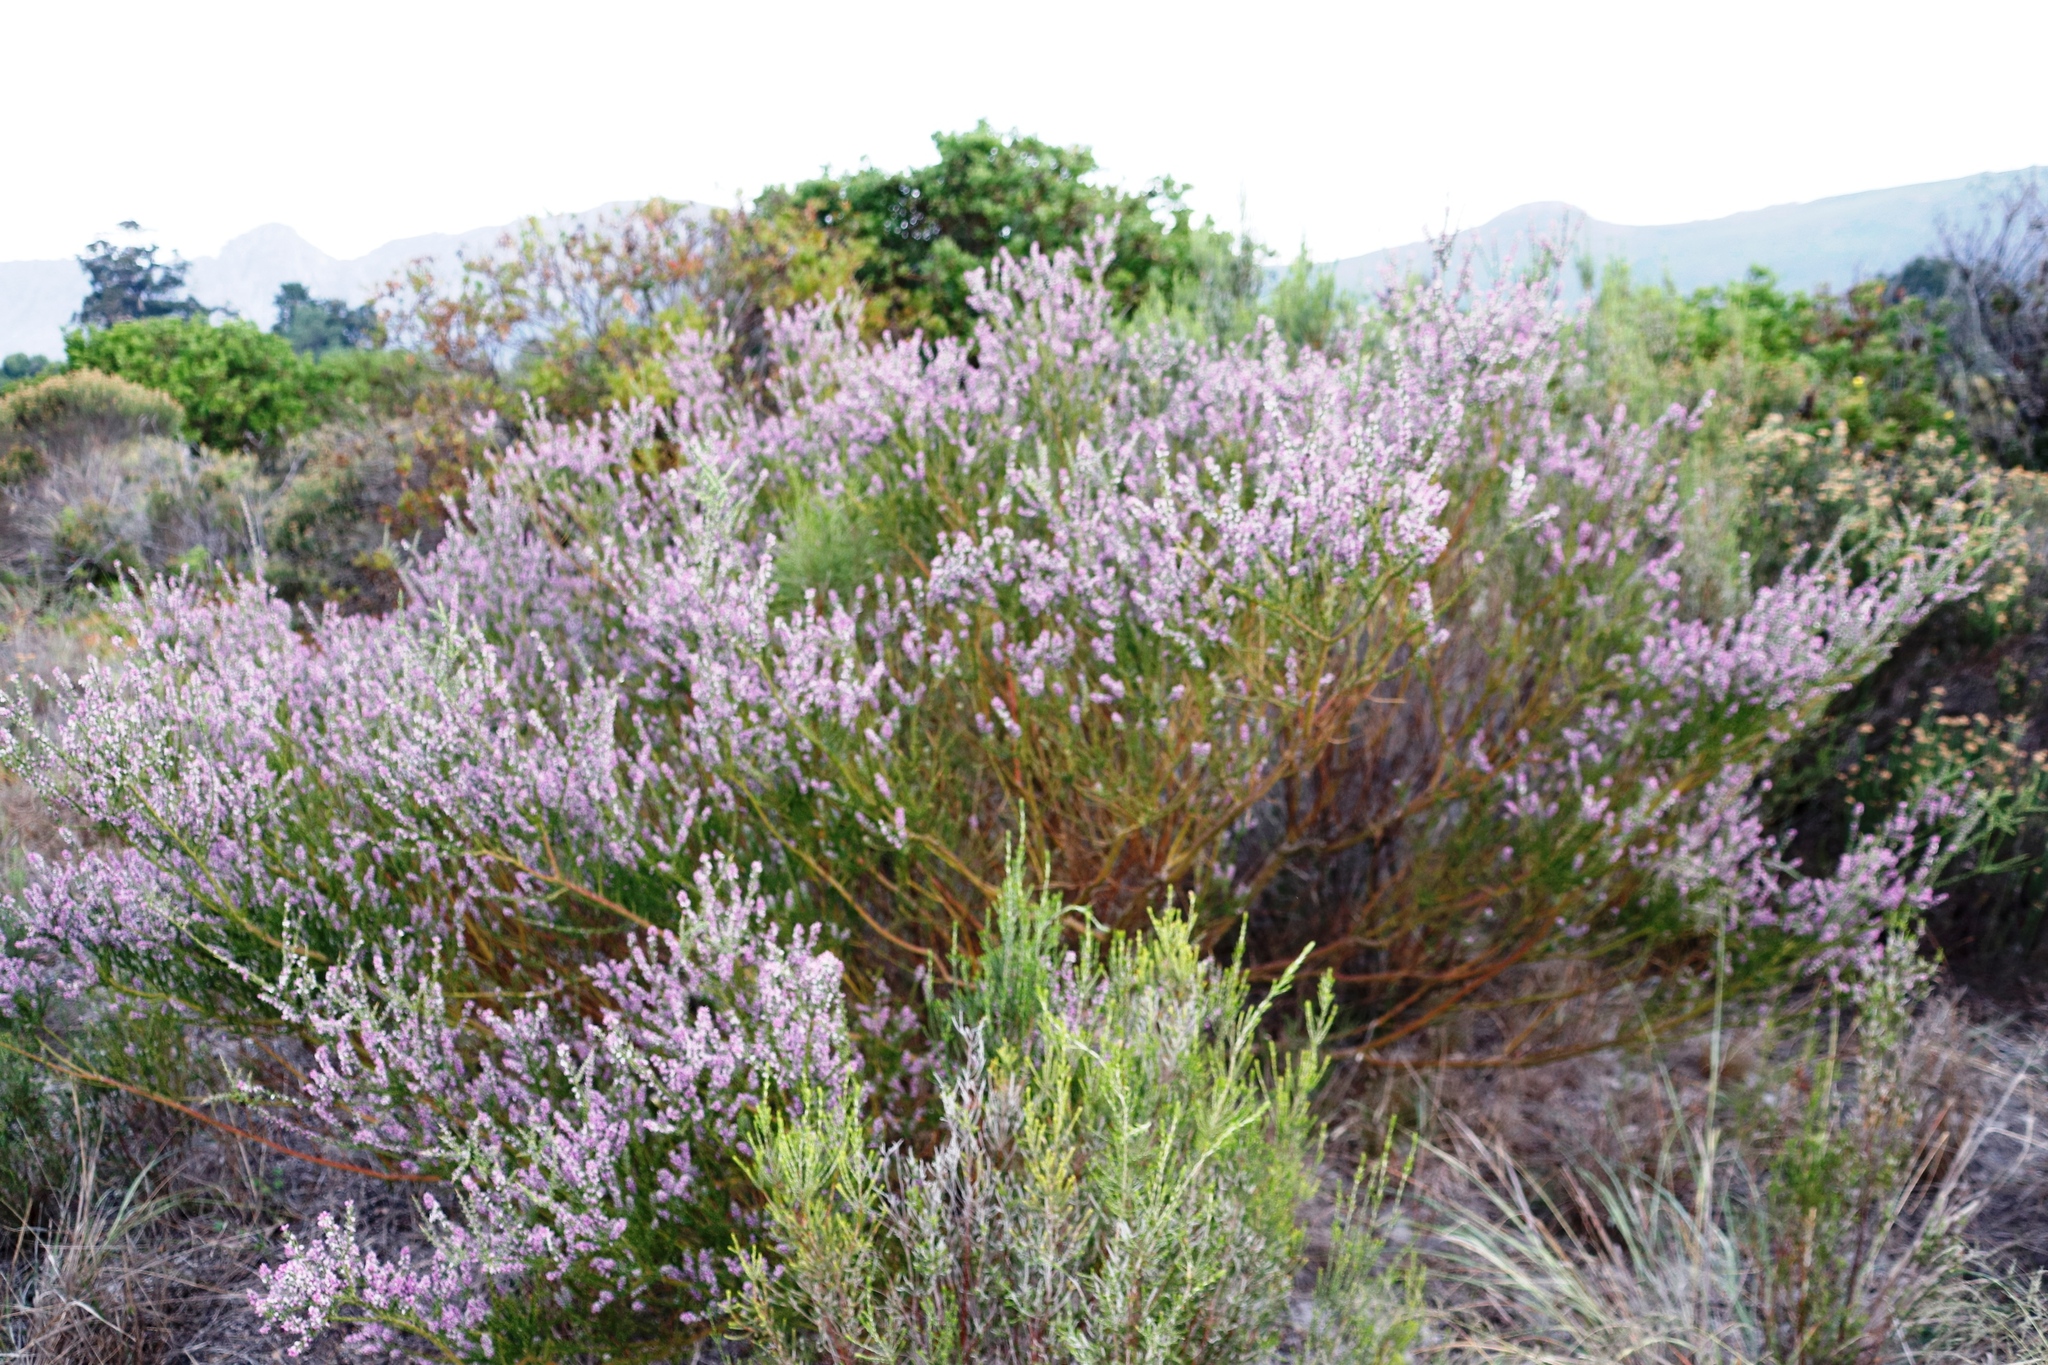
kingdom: Plantae
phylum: Tracheophyta
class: Magnoliopsida
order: Fabales
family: Polygalaceae
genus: Muraltia
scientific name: Muraltia spinosa
